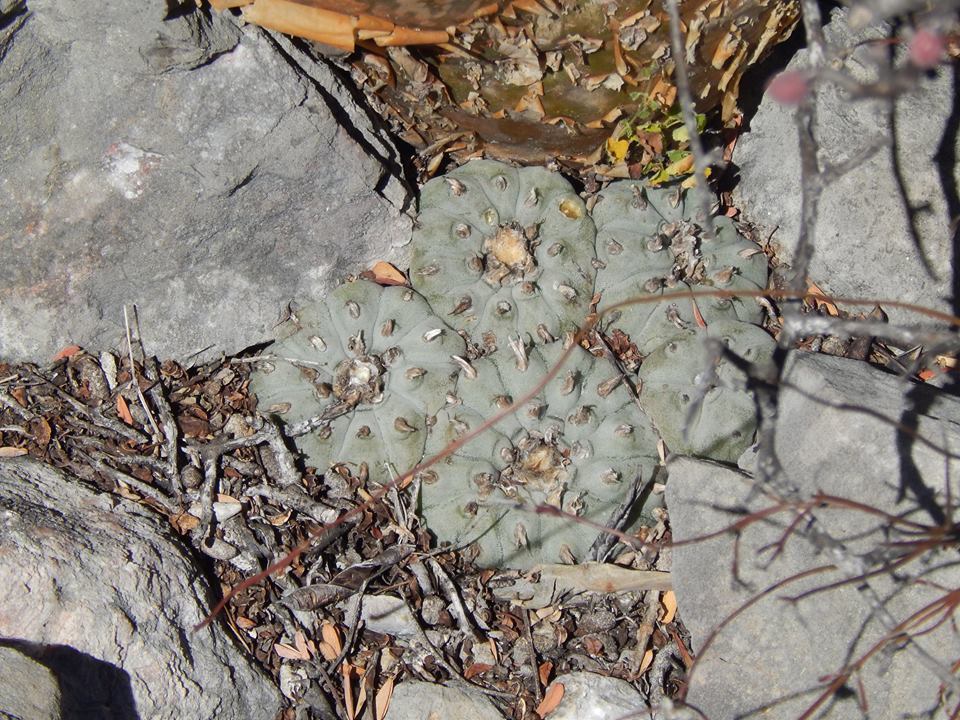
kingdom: Plantae
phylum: Tracheophyta
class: Magnoliopsida
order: Caryophyllales
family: Cactaceae
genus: Lophophora
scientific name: Lophophora williamsii
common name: Indian-dope
